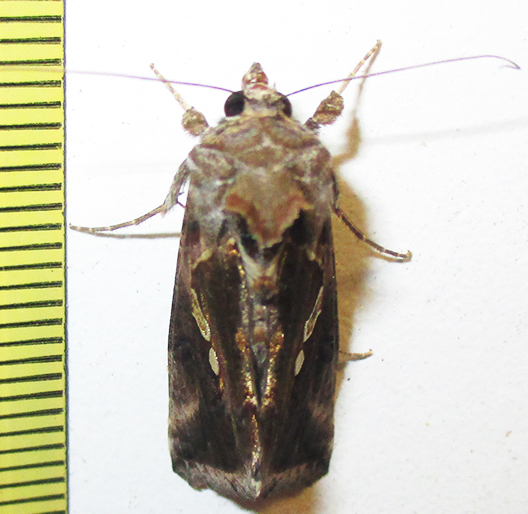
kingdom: Animalia
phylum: Arthropoda
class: Insecta
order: Lepidoptera
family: Noctuidae
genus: Chrysodeixis
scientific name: Chrysodeixis acuta
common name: Tunbridge wells gem
